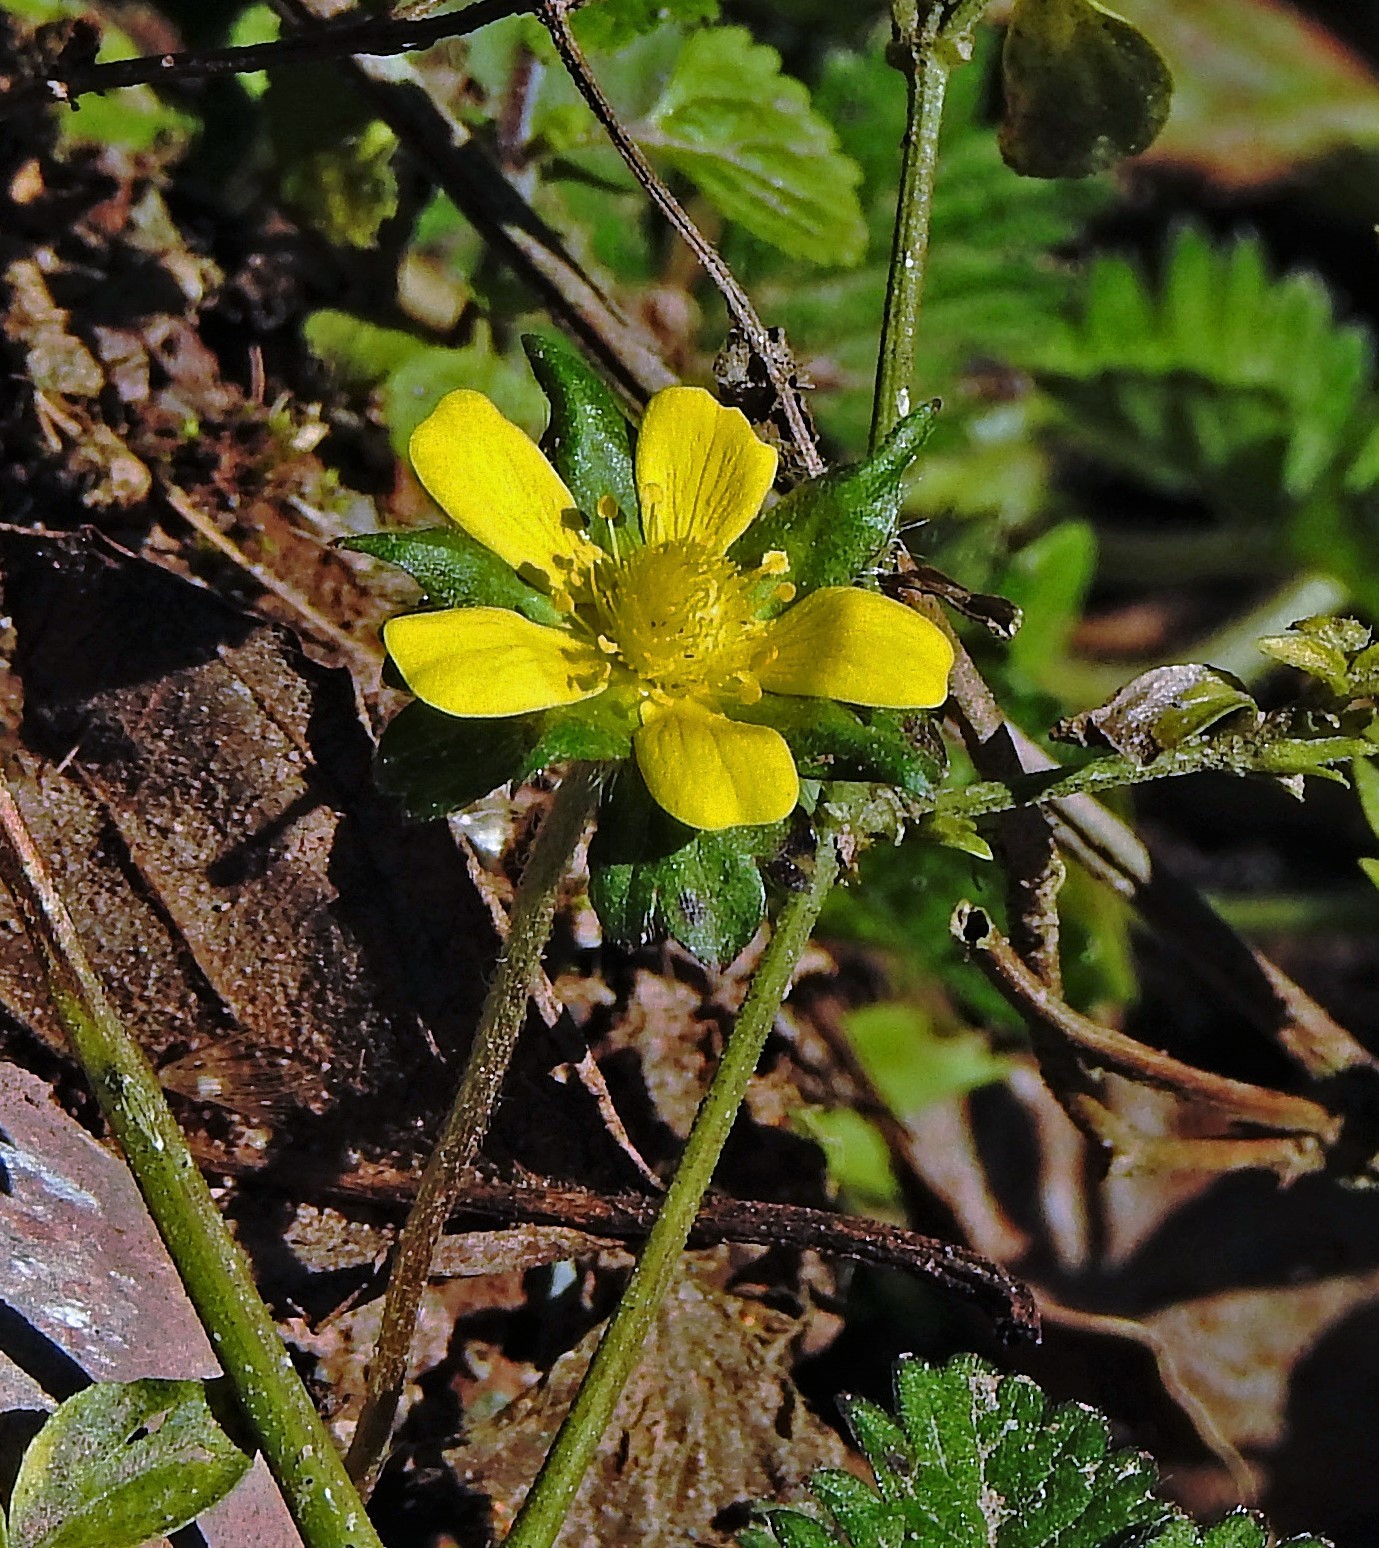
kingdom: Plantae
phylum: Tracheophyta
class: Magnoliopsida
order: Rosales
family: Rosaceae
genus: Potentilla
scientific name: Potentilla indica
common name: Yellow-flowered strawberry
